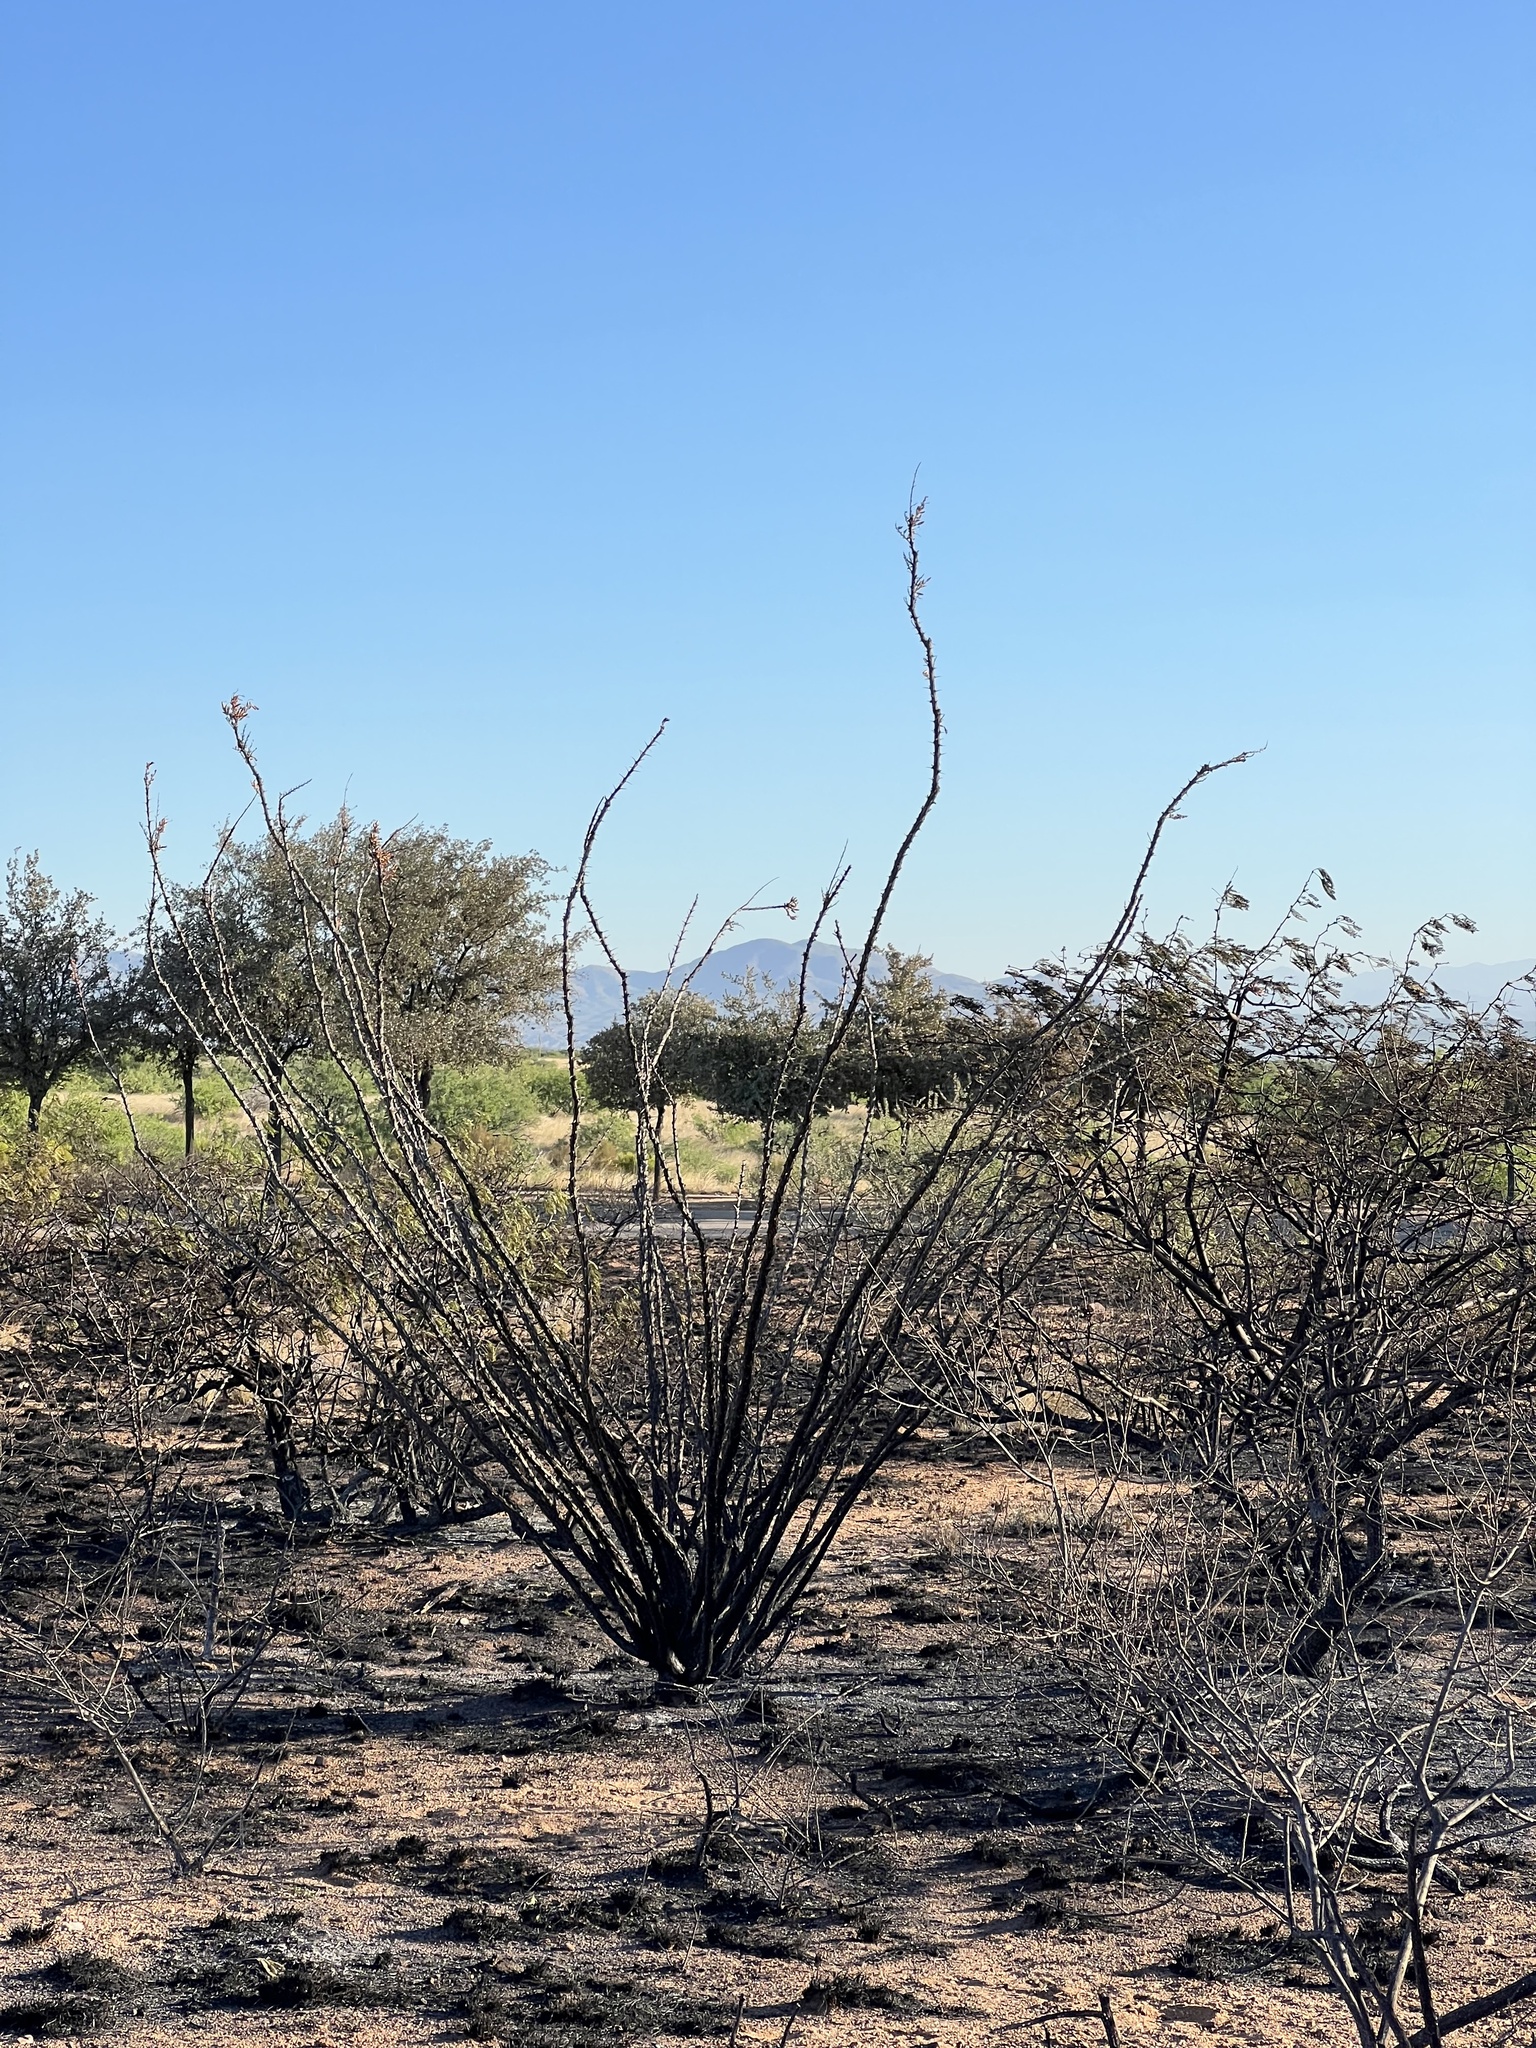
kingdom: Plantae
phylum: Tracheophyta
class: Magnoliopsida
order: Ericales
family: Fouquieriaceae
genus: Fouquieria
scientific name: Fouquieria splendens
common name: Vine-cactus
